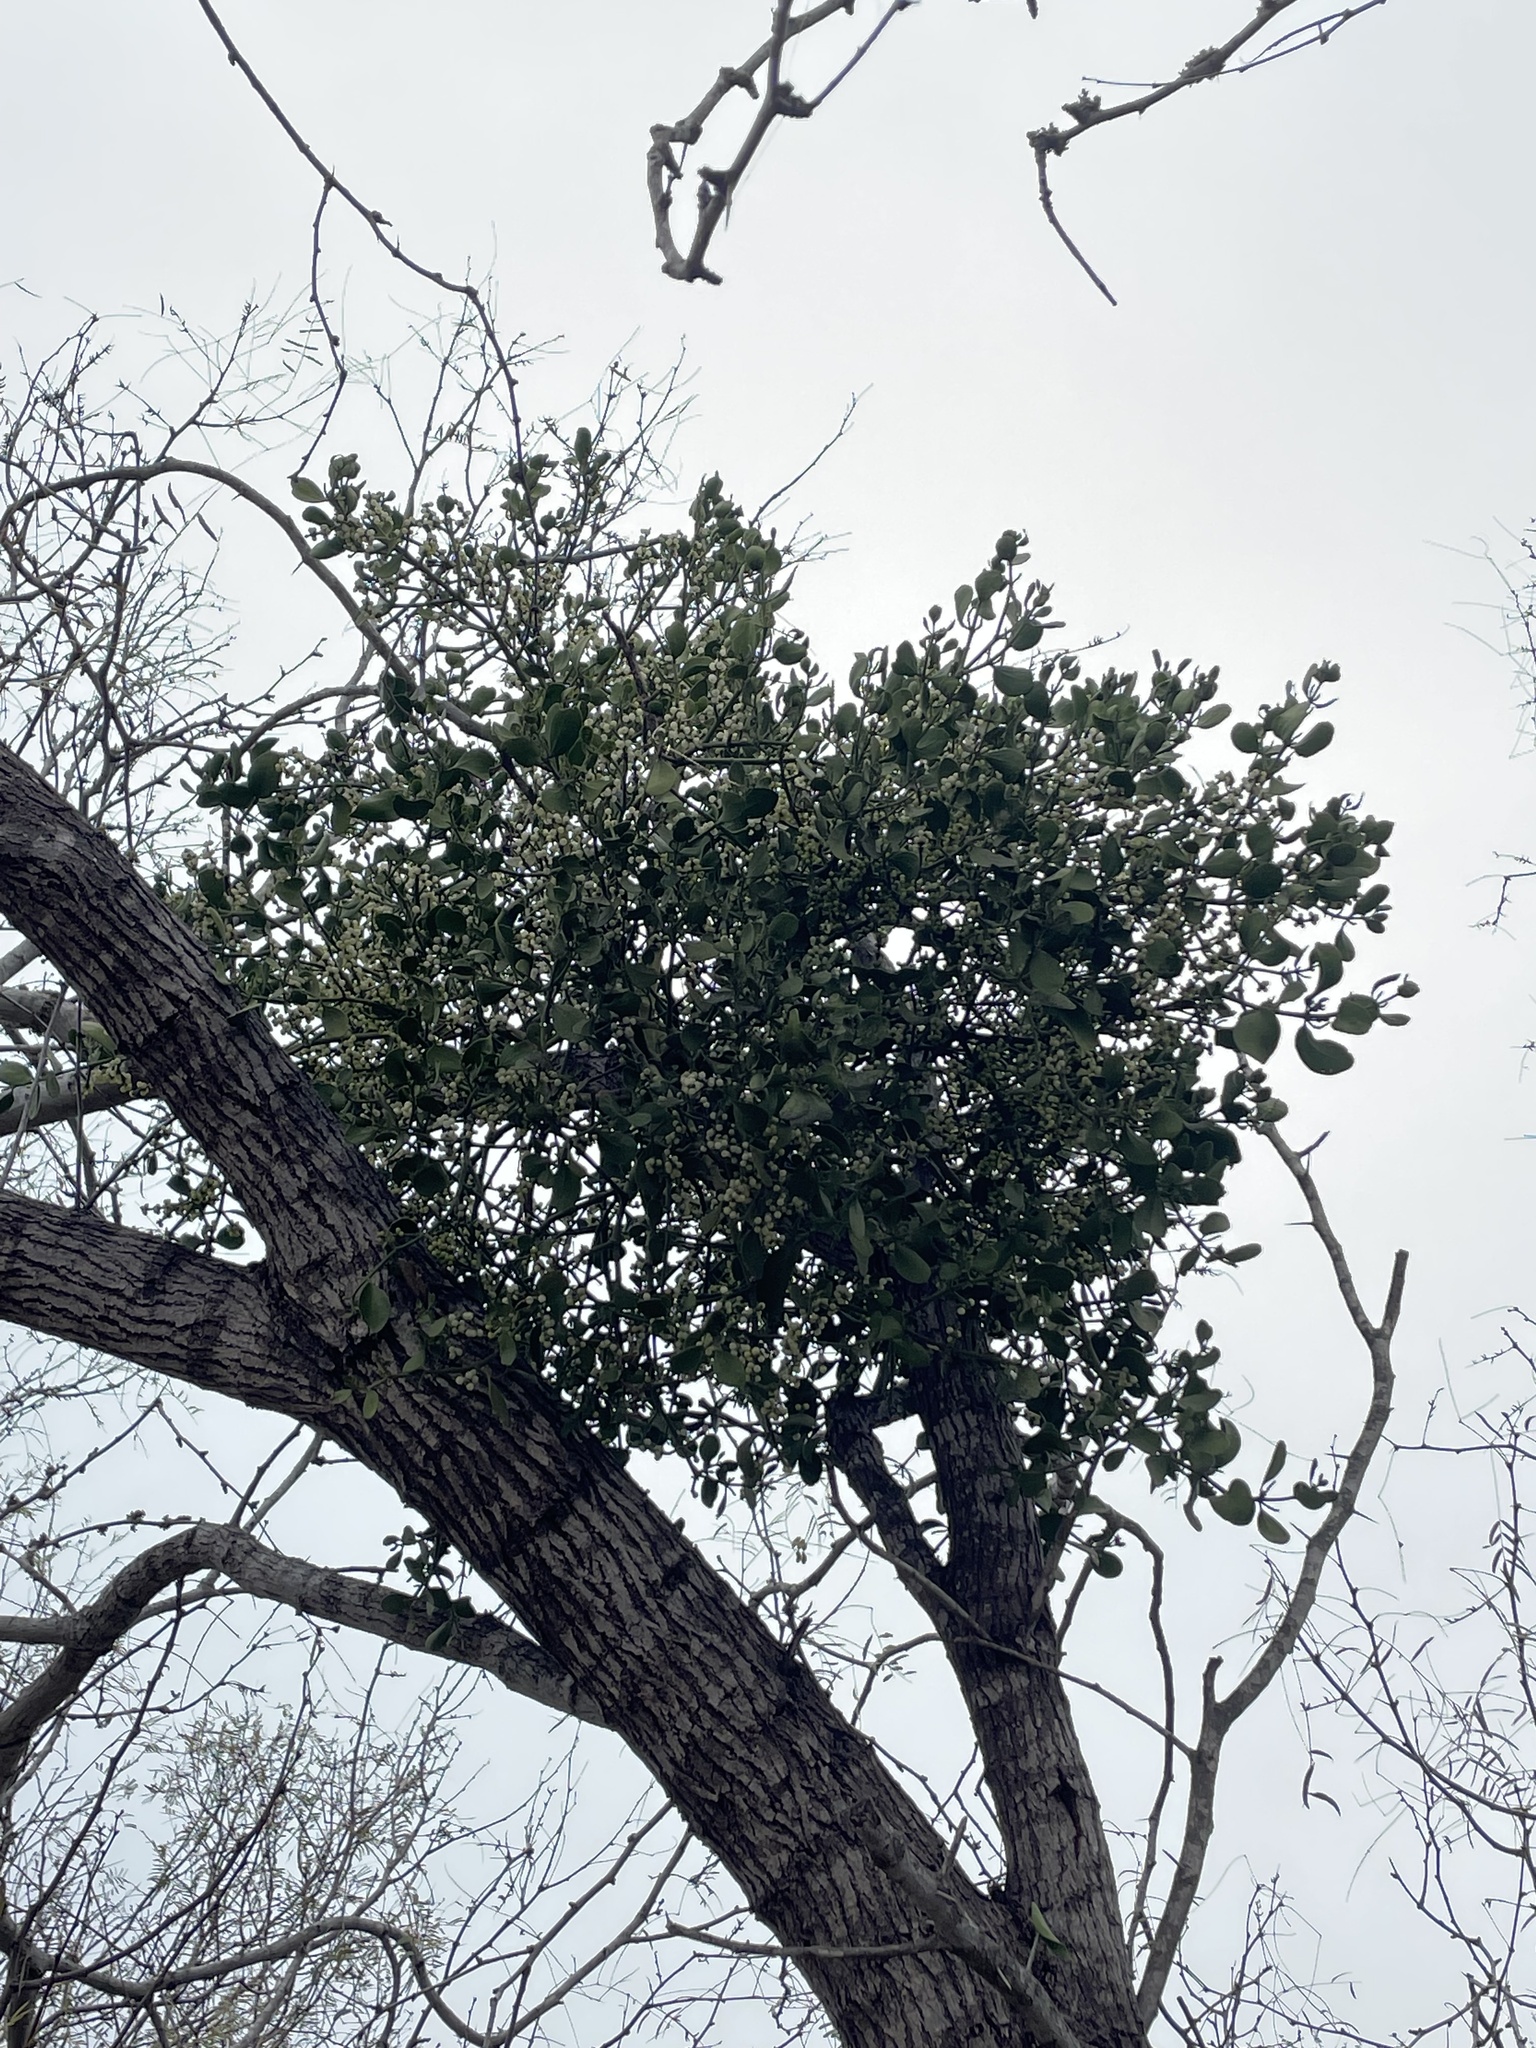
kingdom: Plantae
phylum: Tracheophyta
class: Magnoliopsida
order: Santalales
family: Viscaceae
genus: Phoradendron
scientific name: Phoradendron leucarpum
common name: Pacific mistletoe
